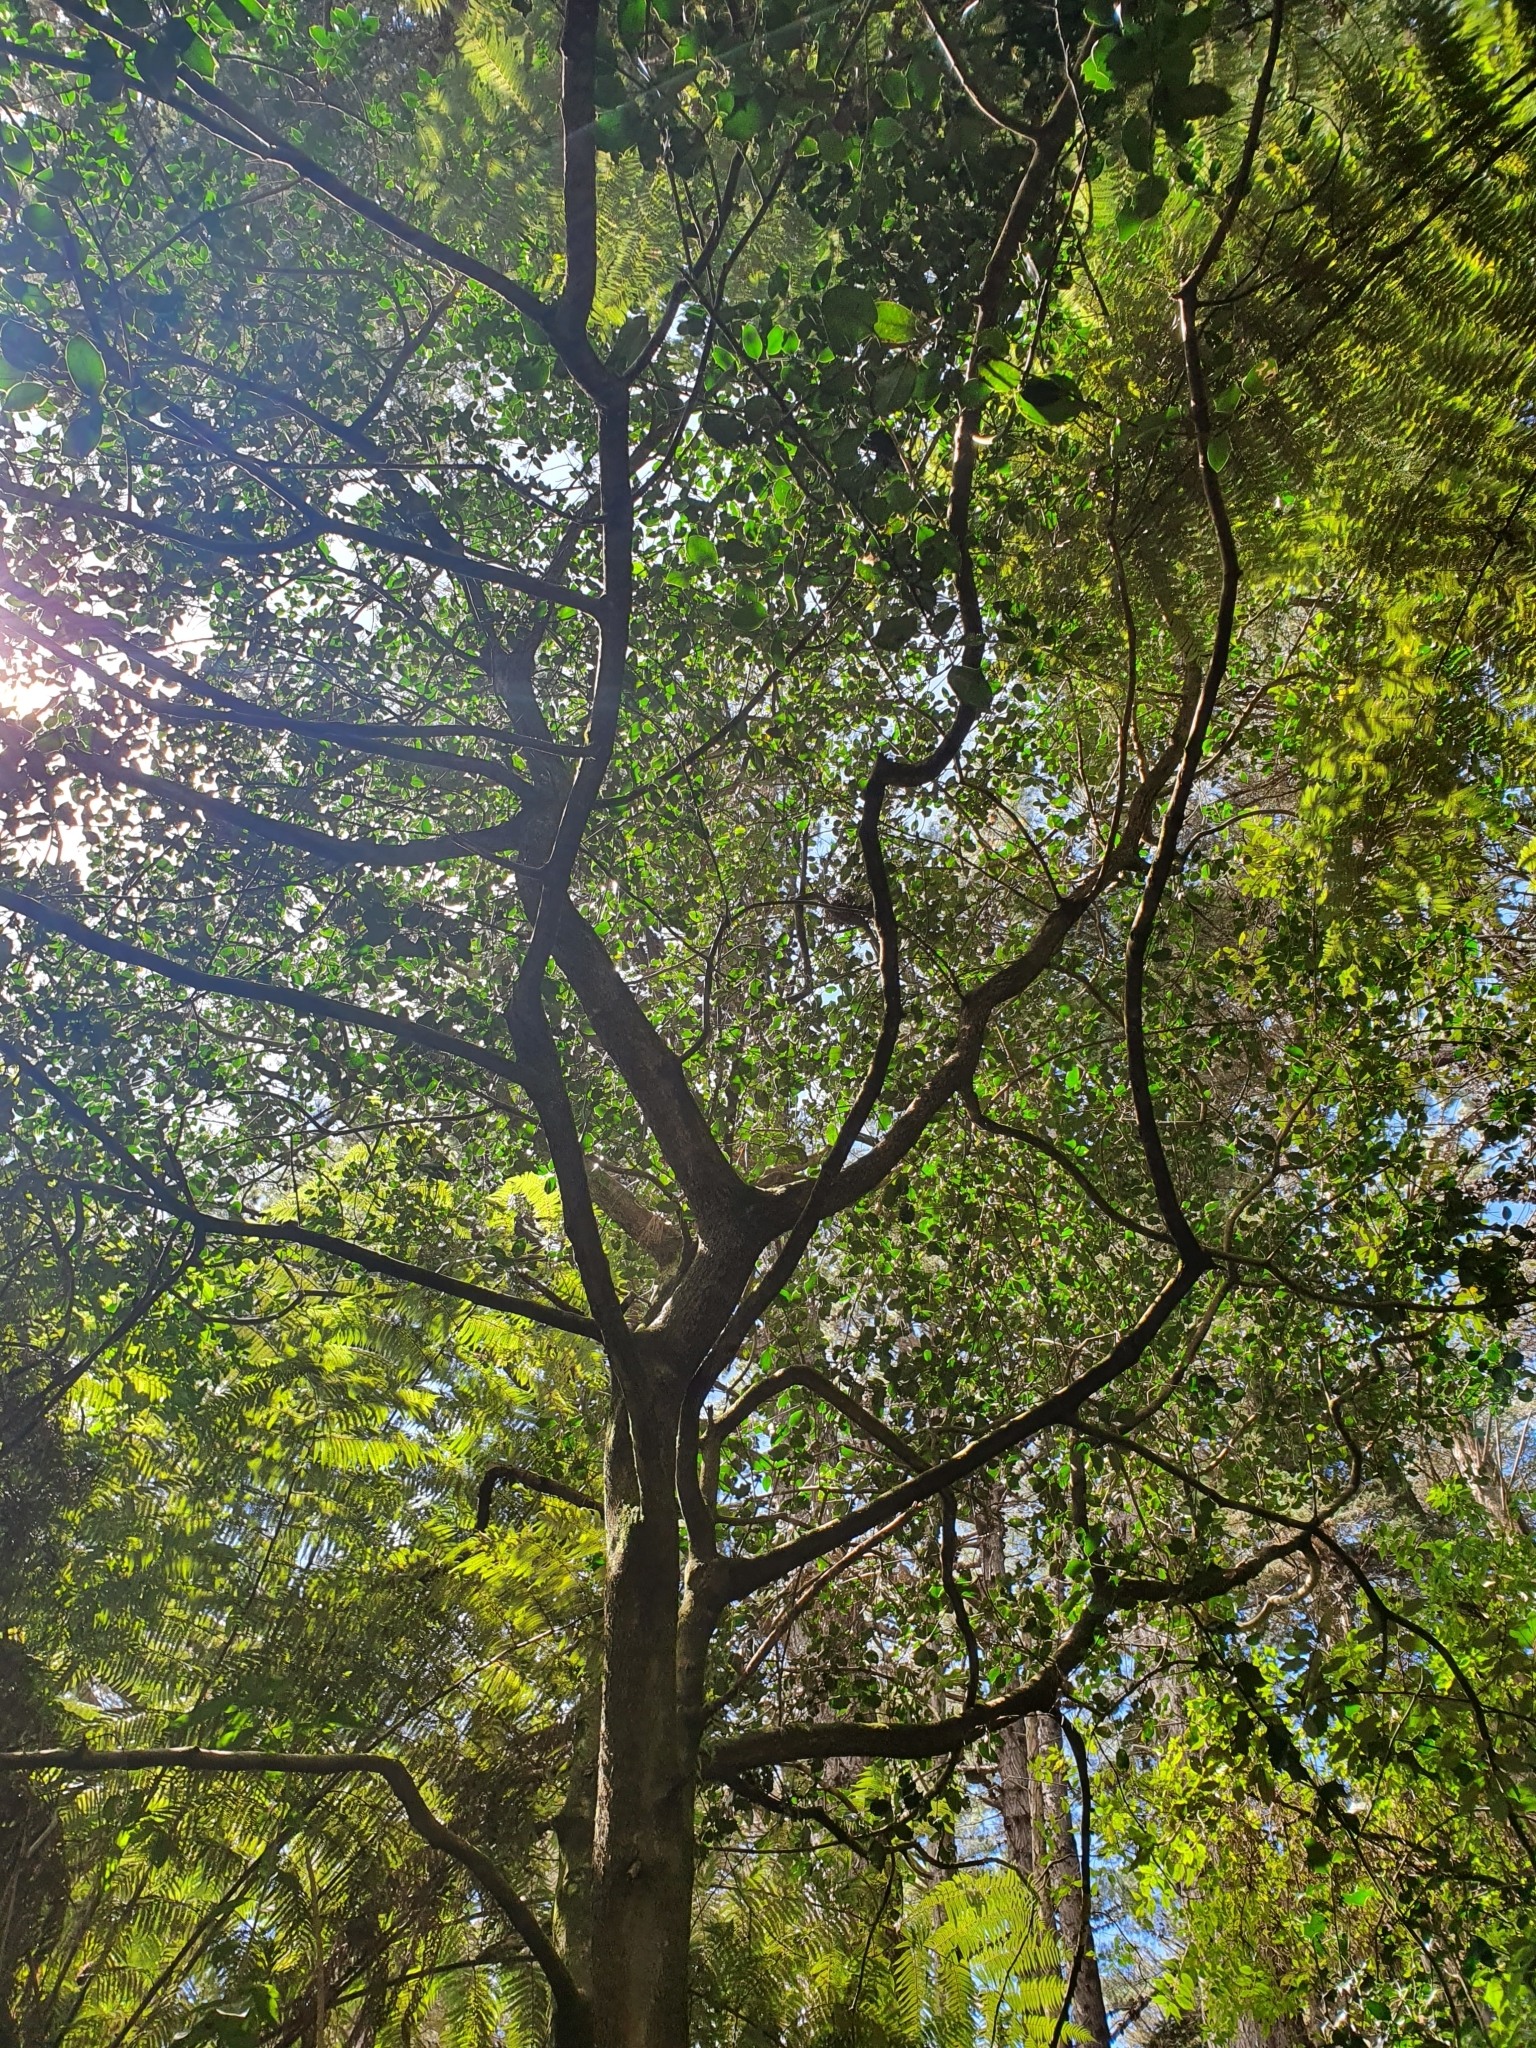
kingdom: Plantae
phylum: Tracheophyta
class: Magnoliopsida
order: Aquifoliales
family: Aquifoliaceae
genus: Ilex
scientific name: Ilex aquifolium
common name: English holly
